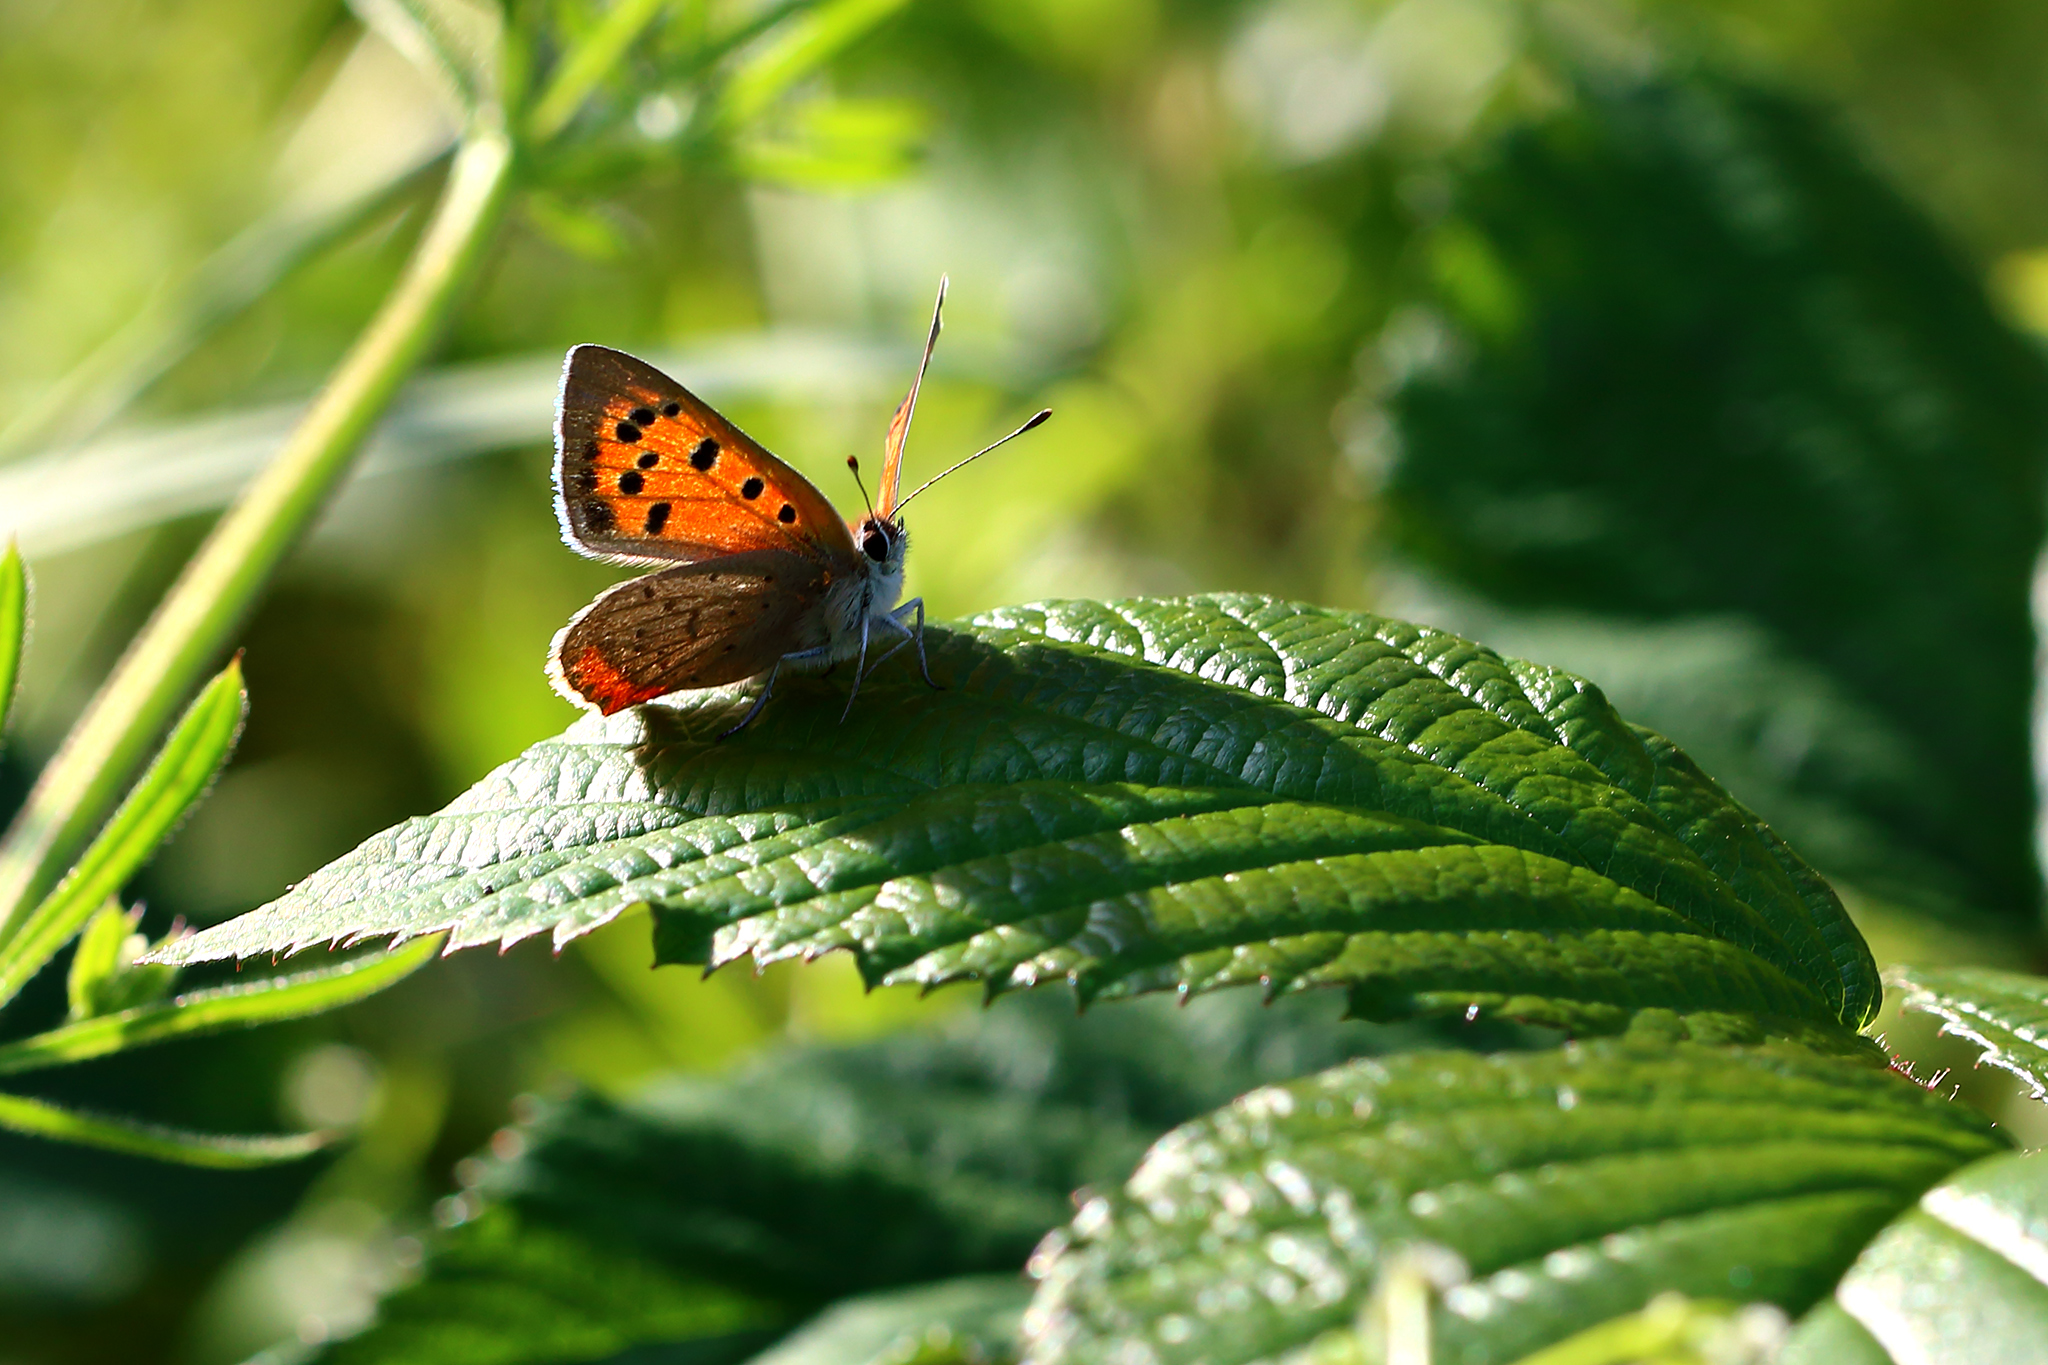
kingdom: Animalia
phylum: Arthropoda
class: Insecta
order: Lepidoptera
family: Lycaenidae
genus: Lycaena
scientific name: Lycaena phlaeas
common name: Small copper
